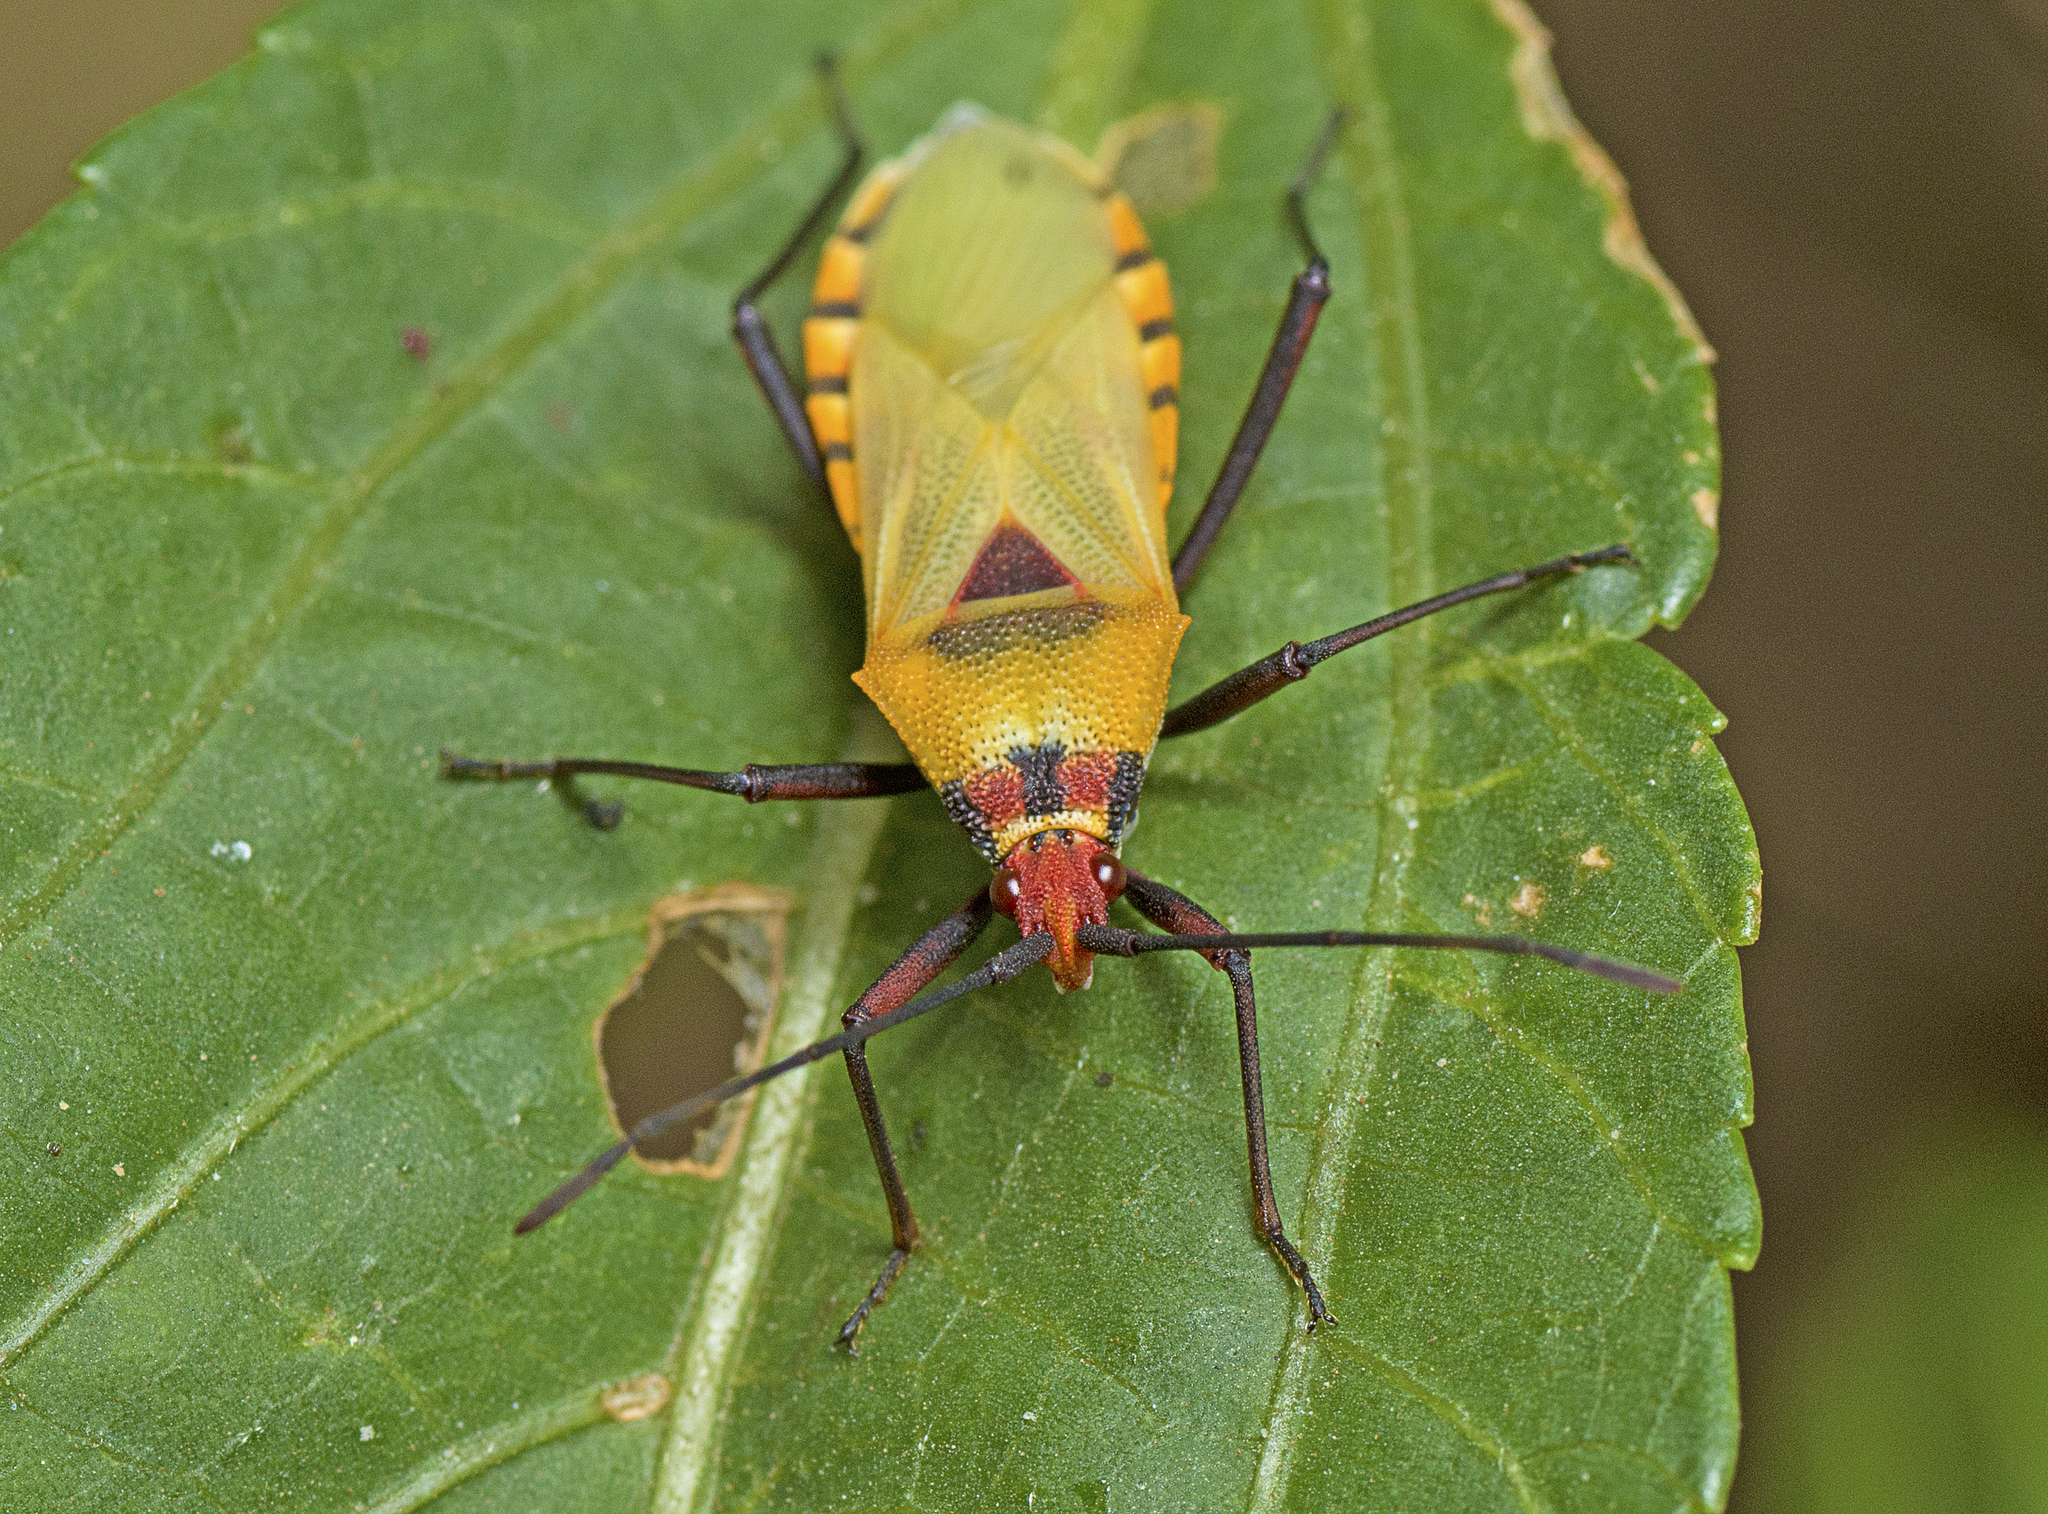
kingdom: Animalia
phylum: Arthropoda
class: Insecta
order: Hemiptera
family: Coreidae
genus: Aulacosternum
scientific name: Aulacosternum nigrorubrum
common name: Cotton plant bug
